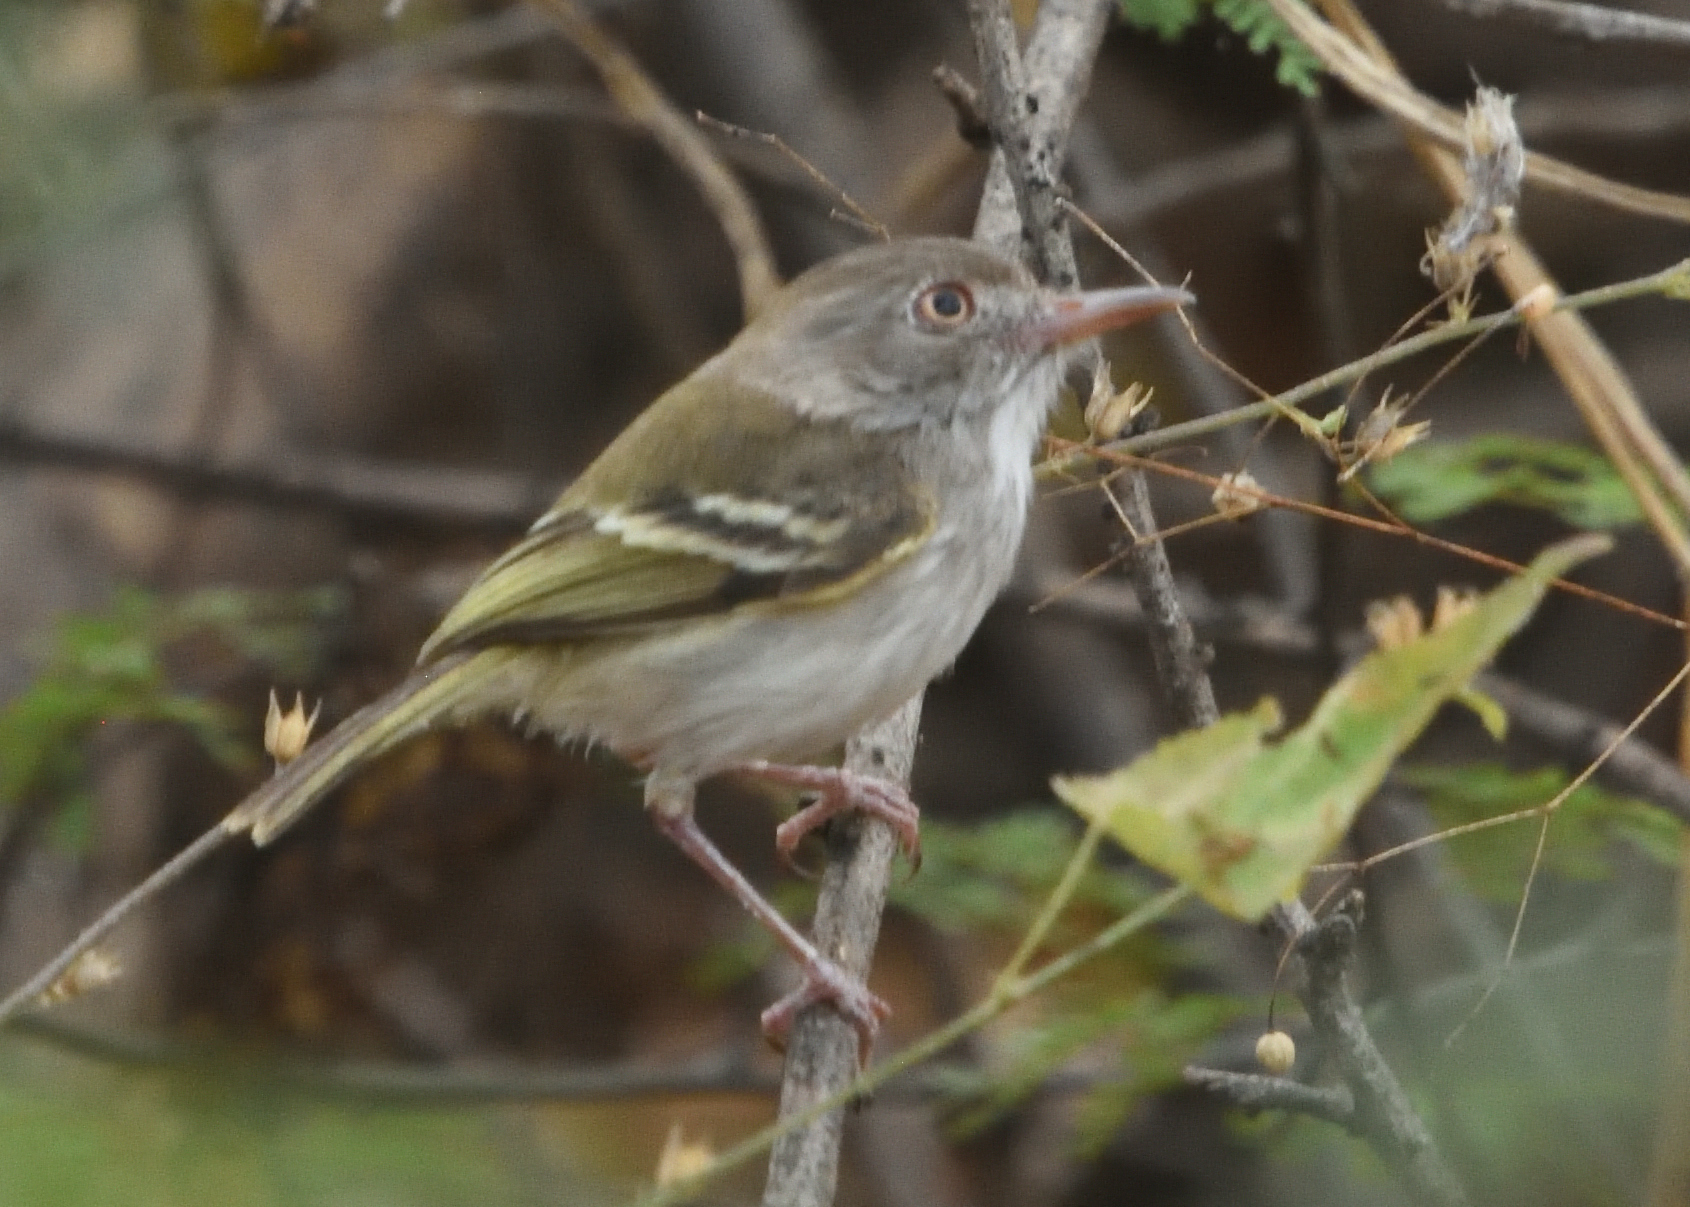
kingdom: Animalia
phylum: Chordata
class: Aves
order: Passeriformes
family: Tyrannidae
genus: Hemitriccus
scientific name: Hemitriccus margaritaceiventer
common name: Pearly-vented tody-tyrant
